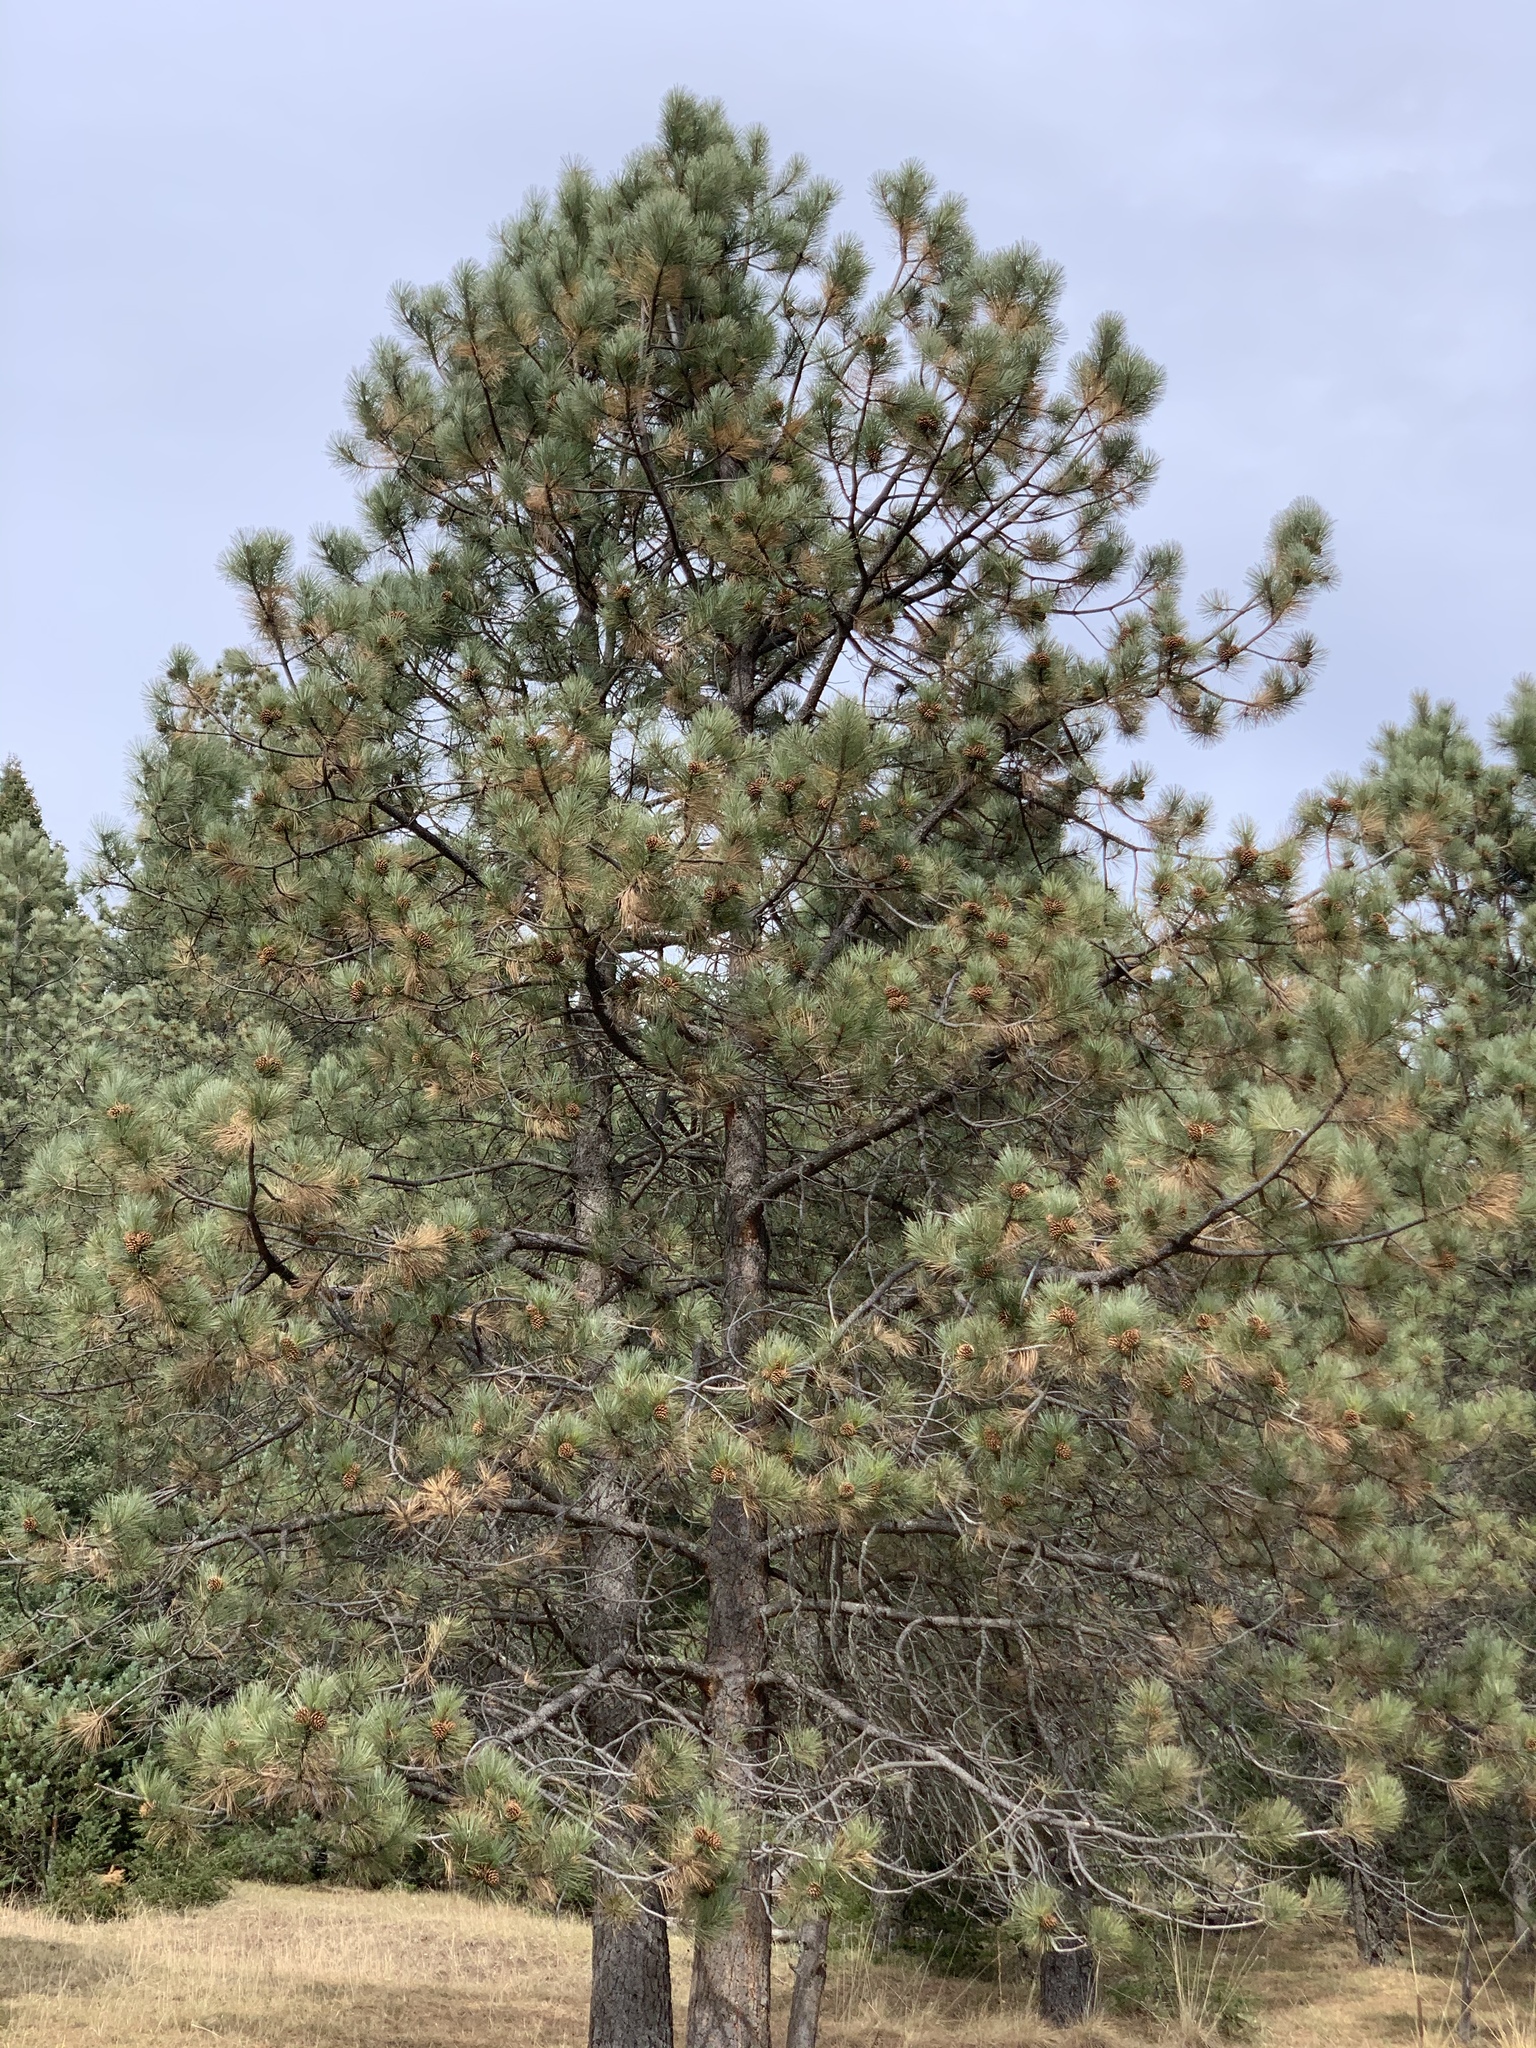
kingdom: Plantae
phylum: Tracheophyta
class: Pinopsida
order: Pinales
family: Pinaceae
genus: Pinus
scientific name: Pinus ponderosa
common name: Western yellow-pine
